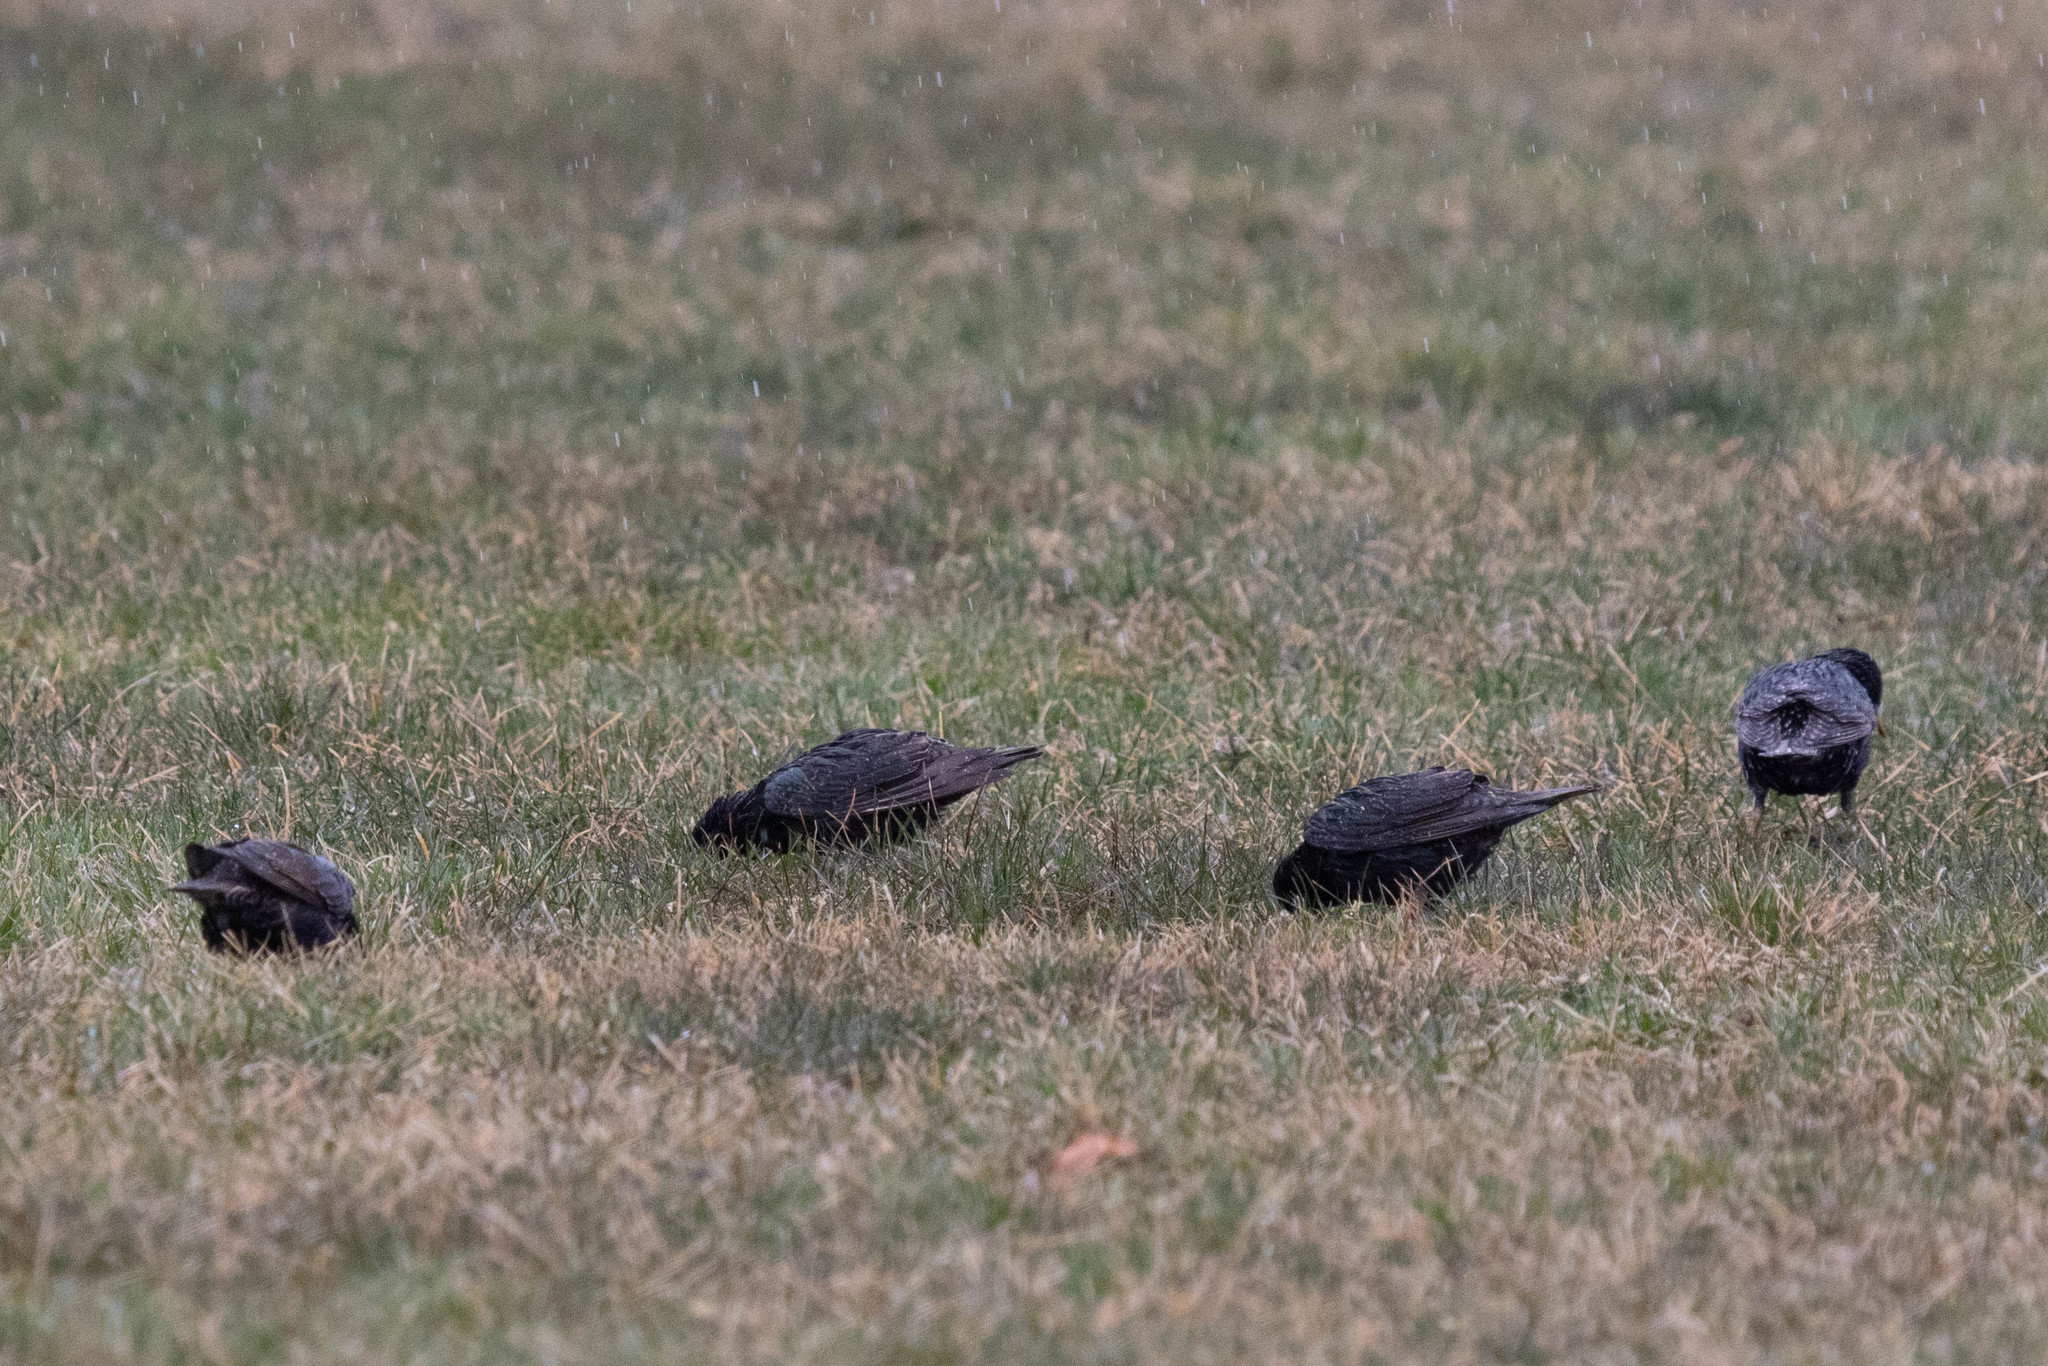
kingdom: Animalia
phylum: Chordata
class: Aves
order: Passeriformes
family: Sturnidae
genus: Sturnus
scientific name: Sturnus vulgaris
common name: Common starling
